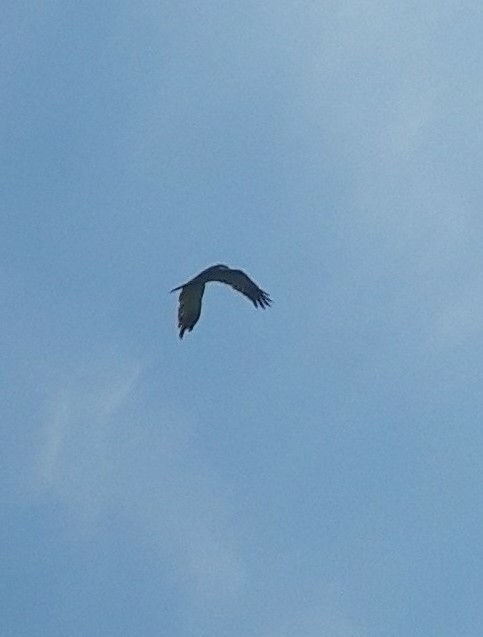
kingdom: Animalia
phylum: Chordata
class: Aves
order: Accipitriformes
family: Accipitridae
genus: Circus
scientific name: Circus aeruginosus
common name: Western marsh harrier
